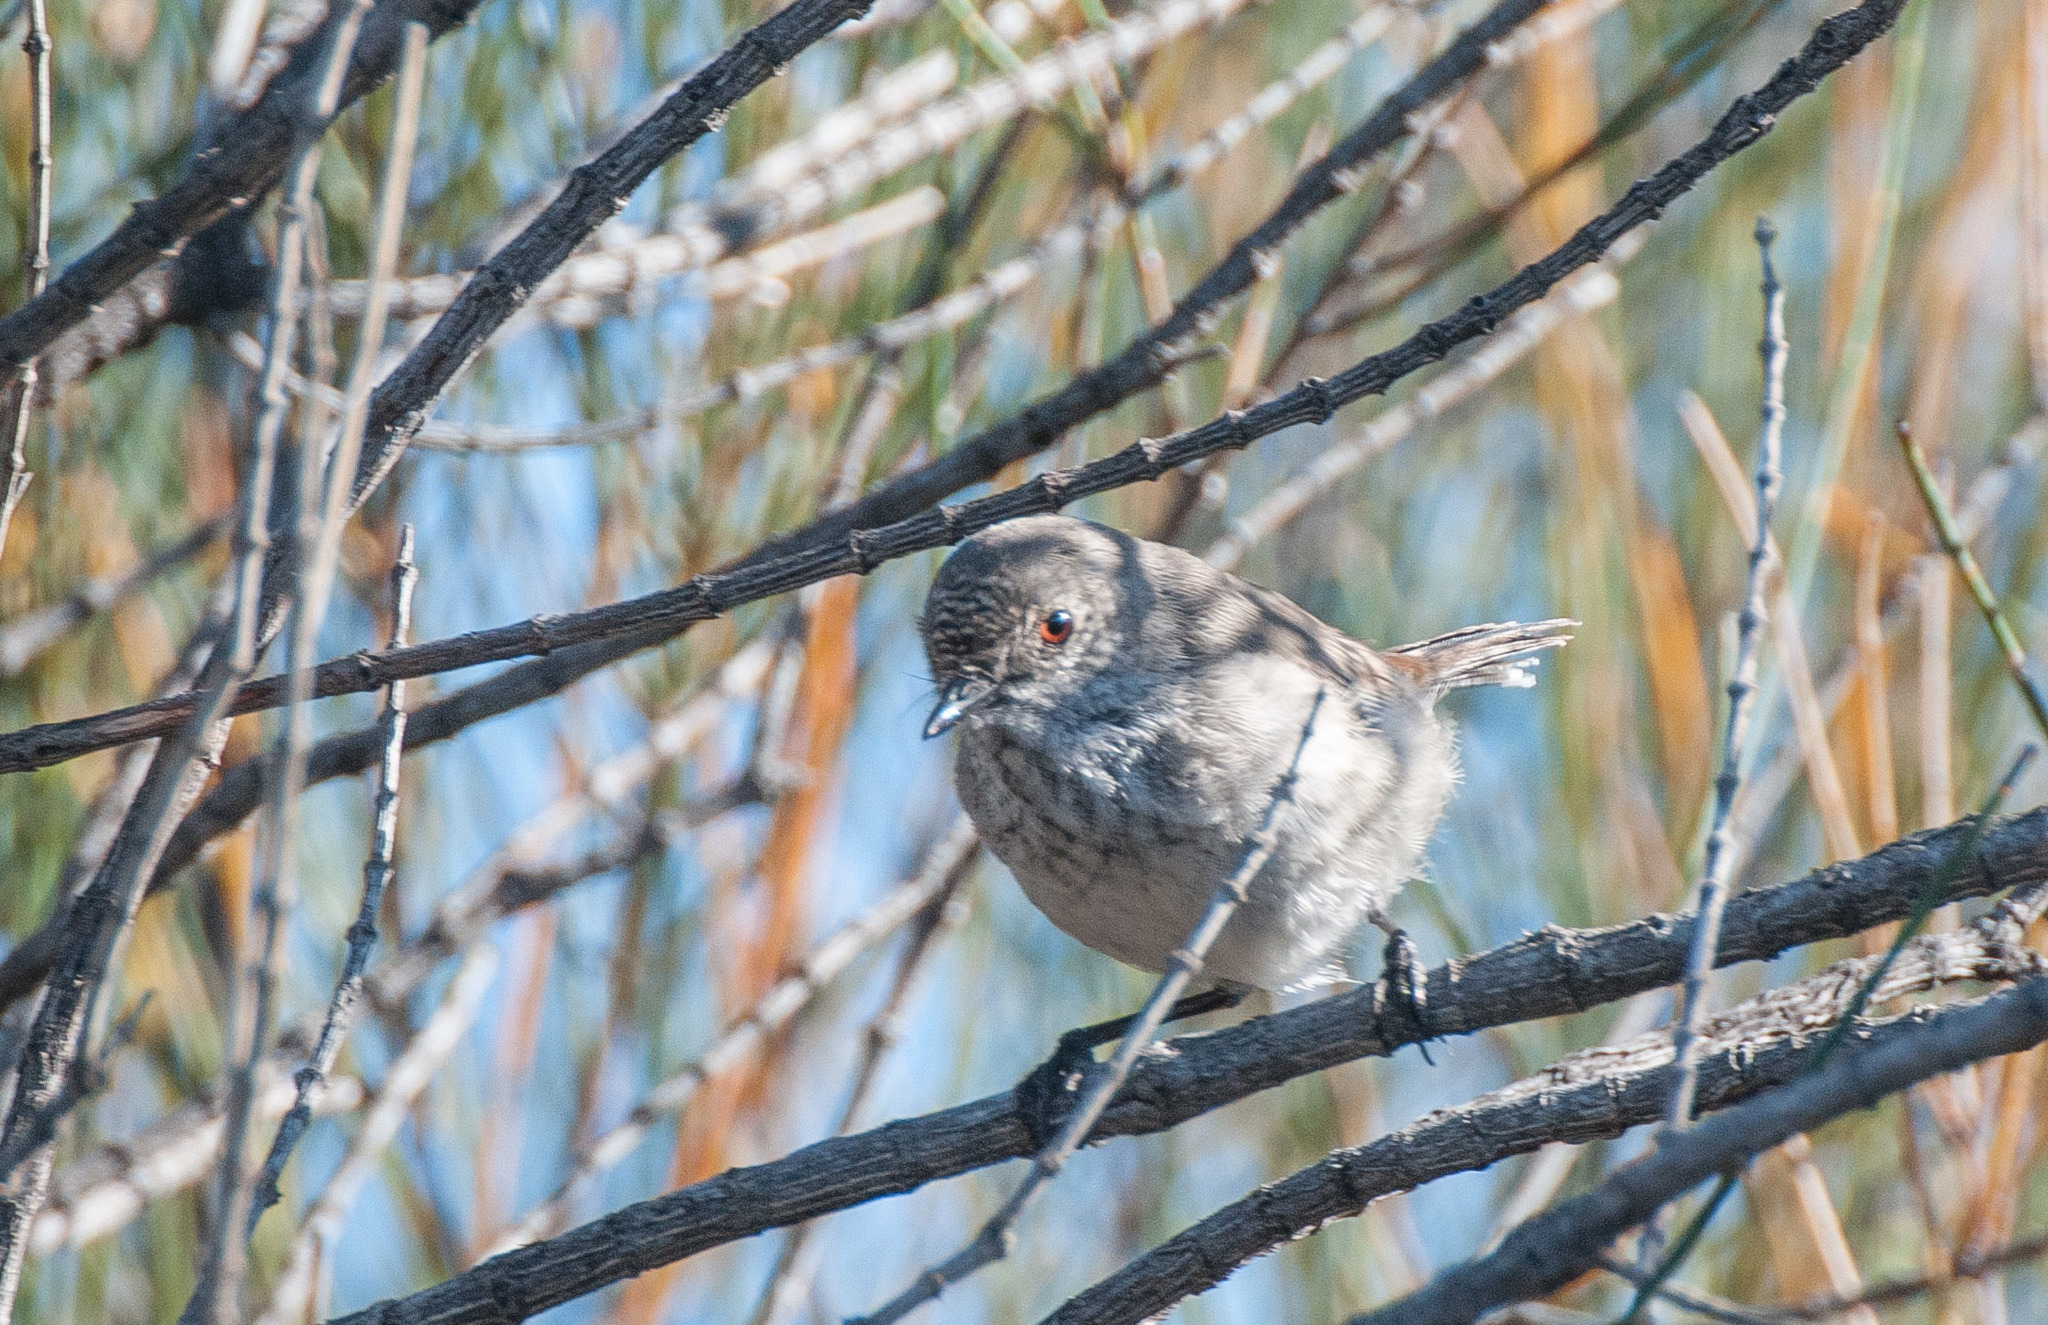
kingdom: Animalia
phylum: Chordata
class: Aves
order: Passeriformes
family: Acanthizidae
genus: Acanthiza
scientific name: Acanthiza apicalis
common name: Inland thornbill
